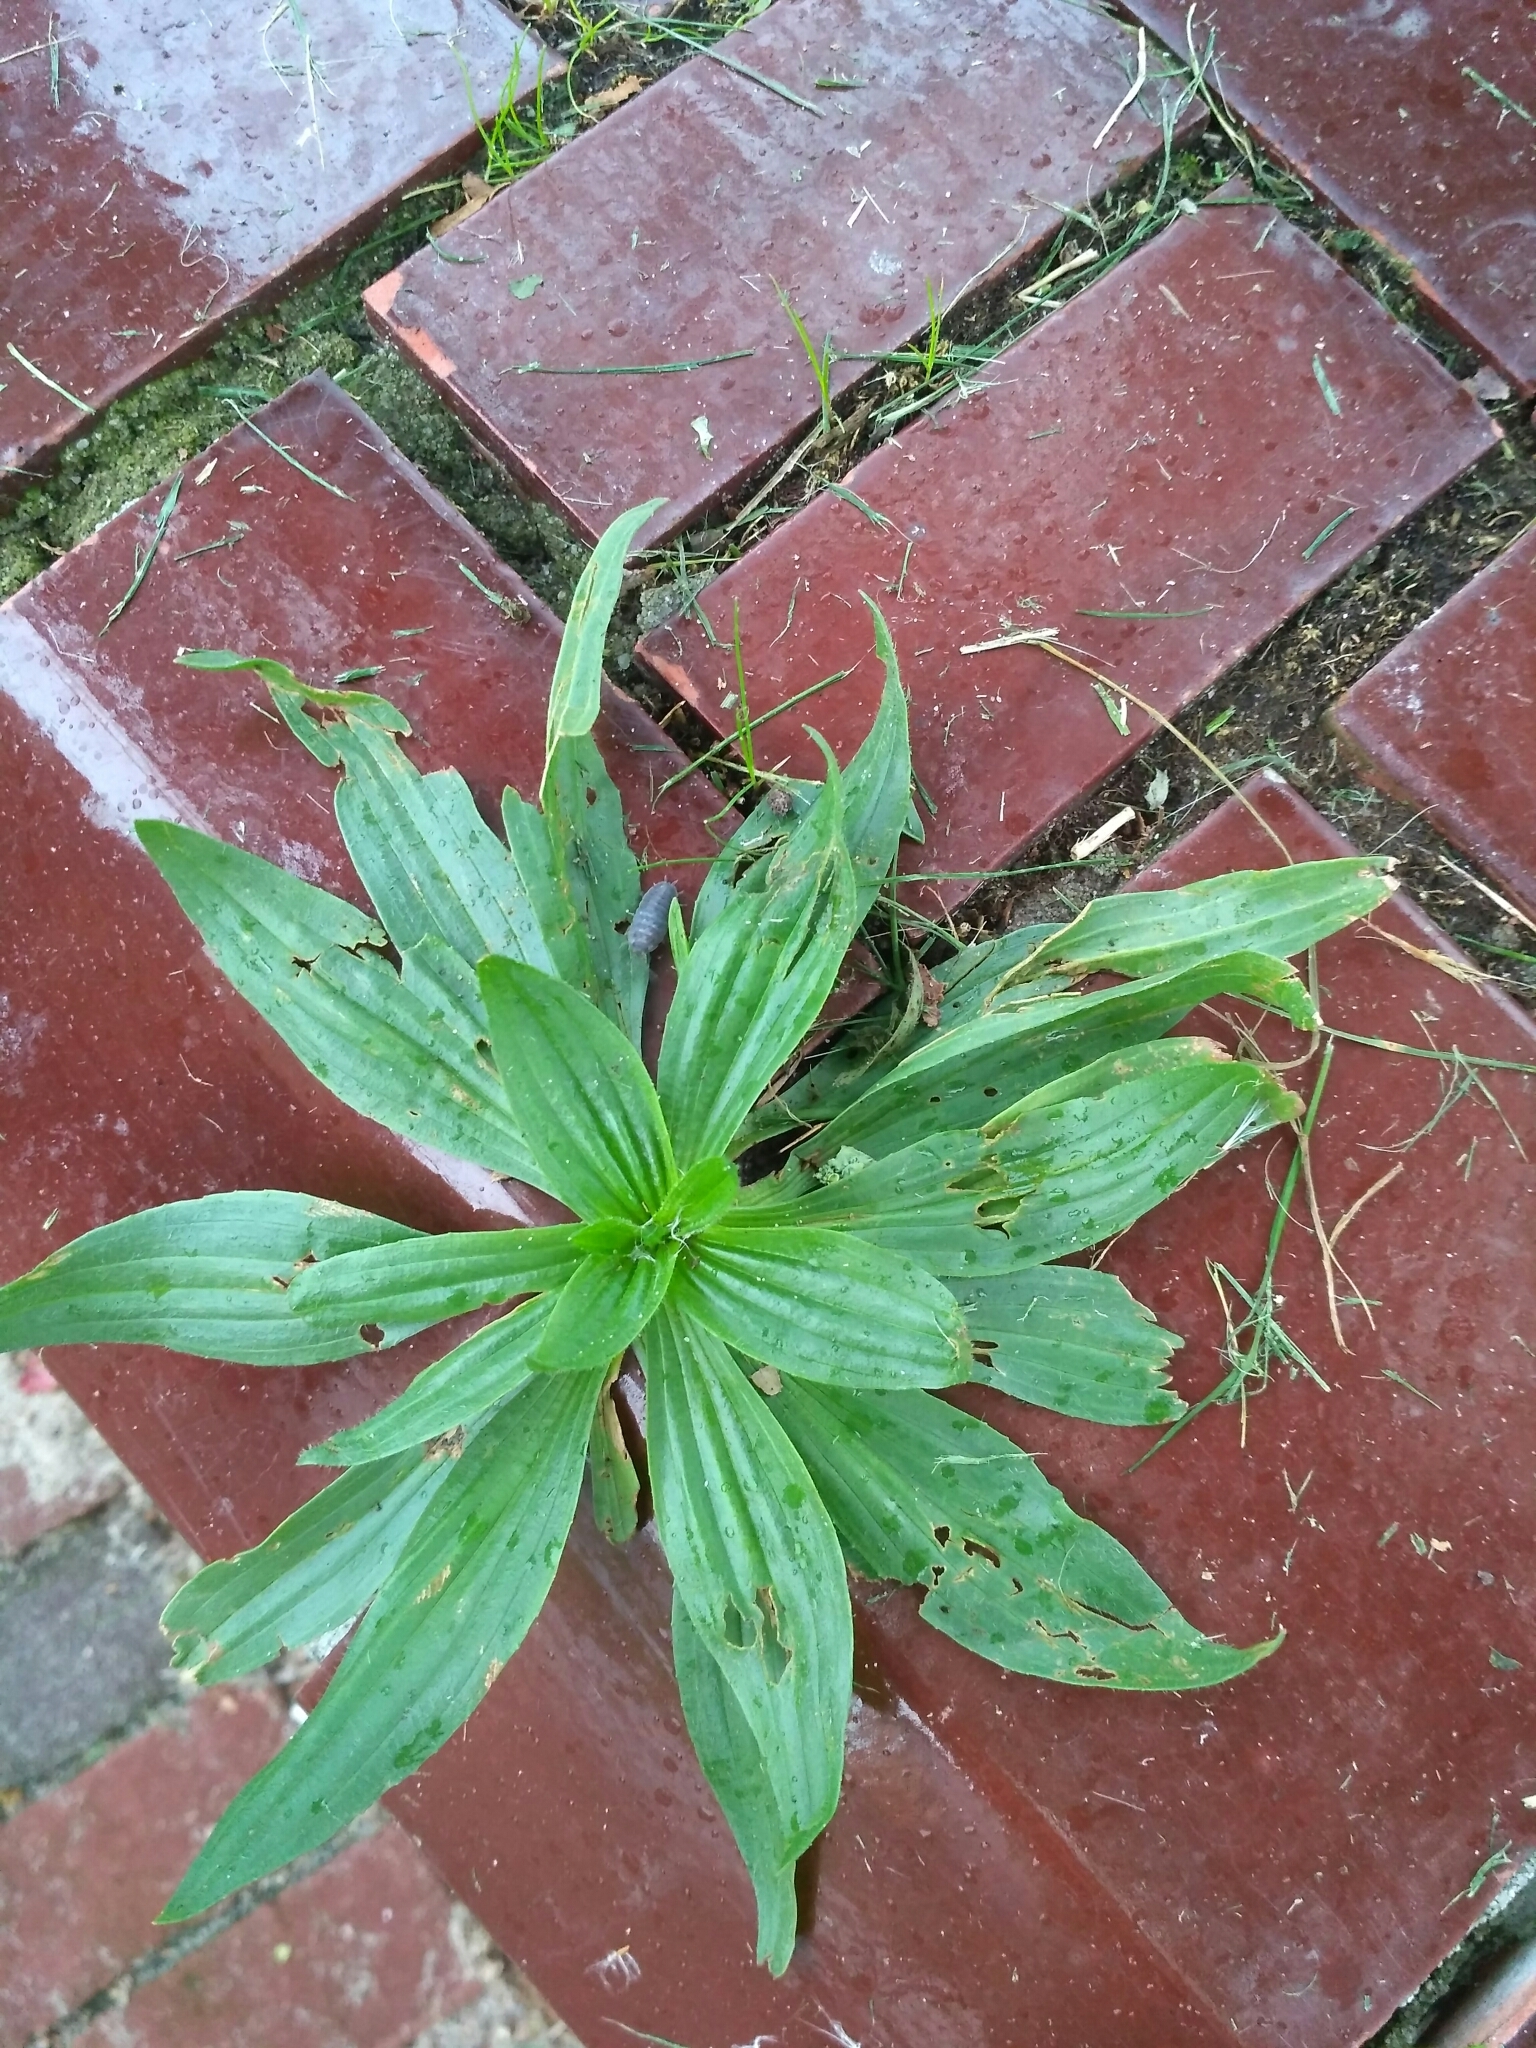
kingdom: Plantae
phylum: Tracheophyta
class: Magnoliopsida
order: Lamiales
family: Plantaginaceae
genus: Plantago
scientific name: Plantago lanceolata
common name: Ribwort plantain
